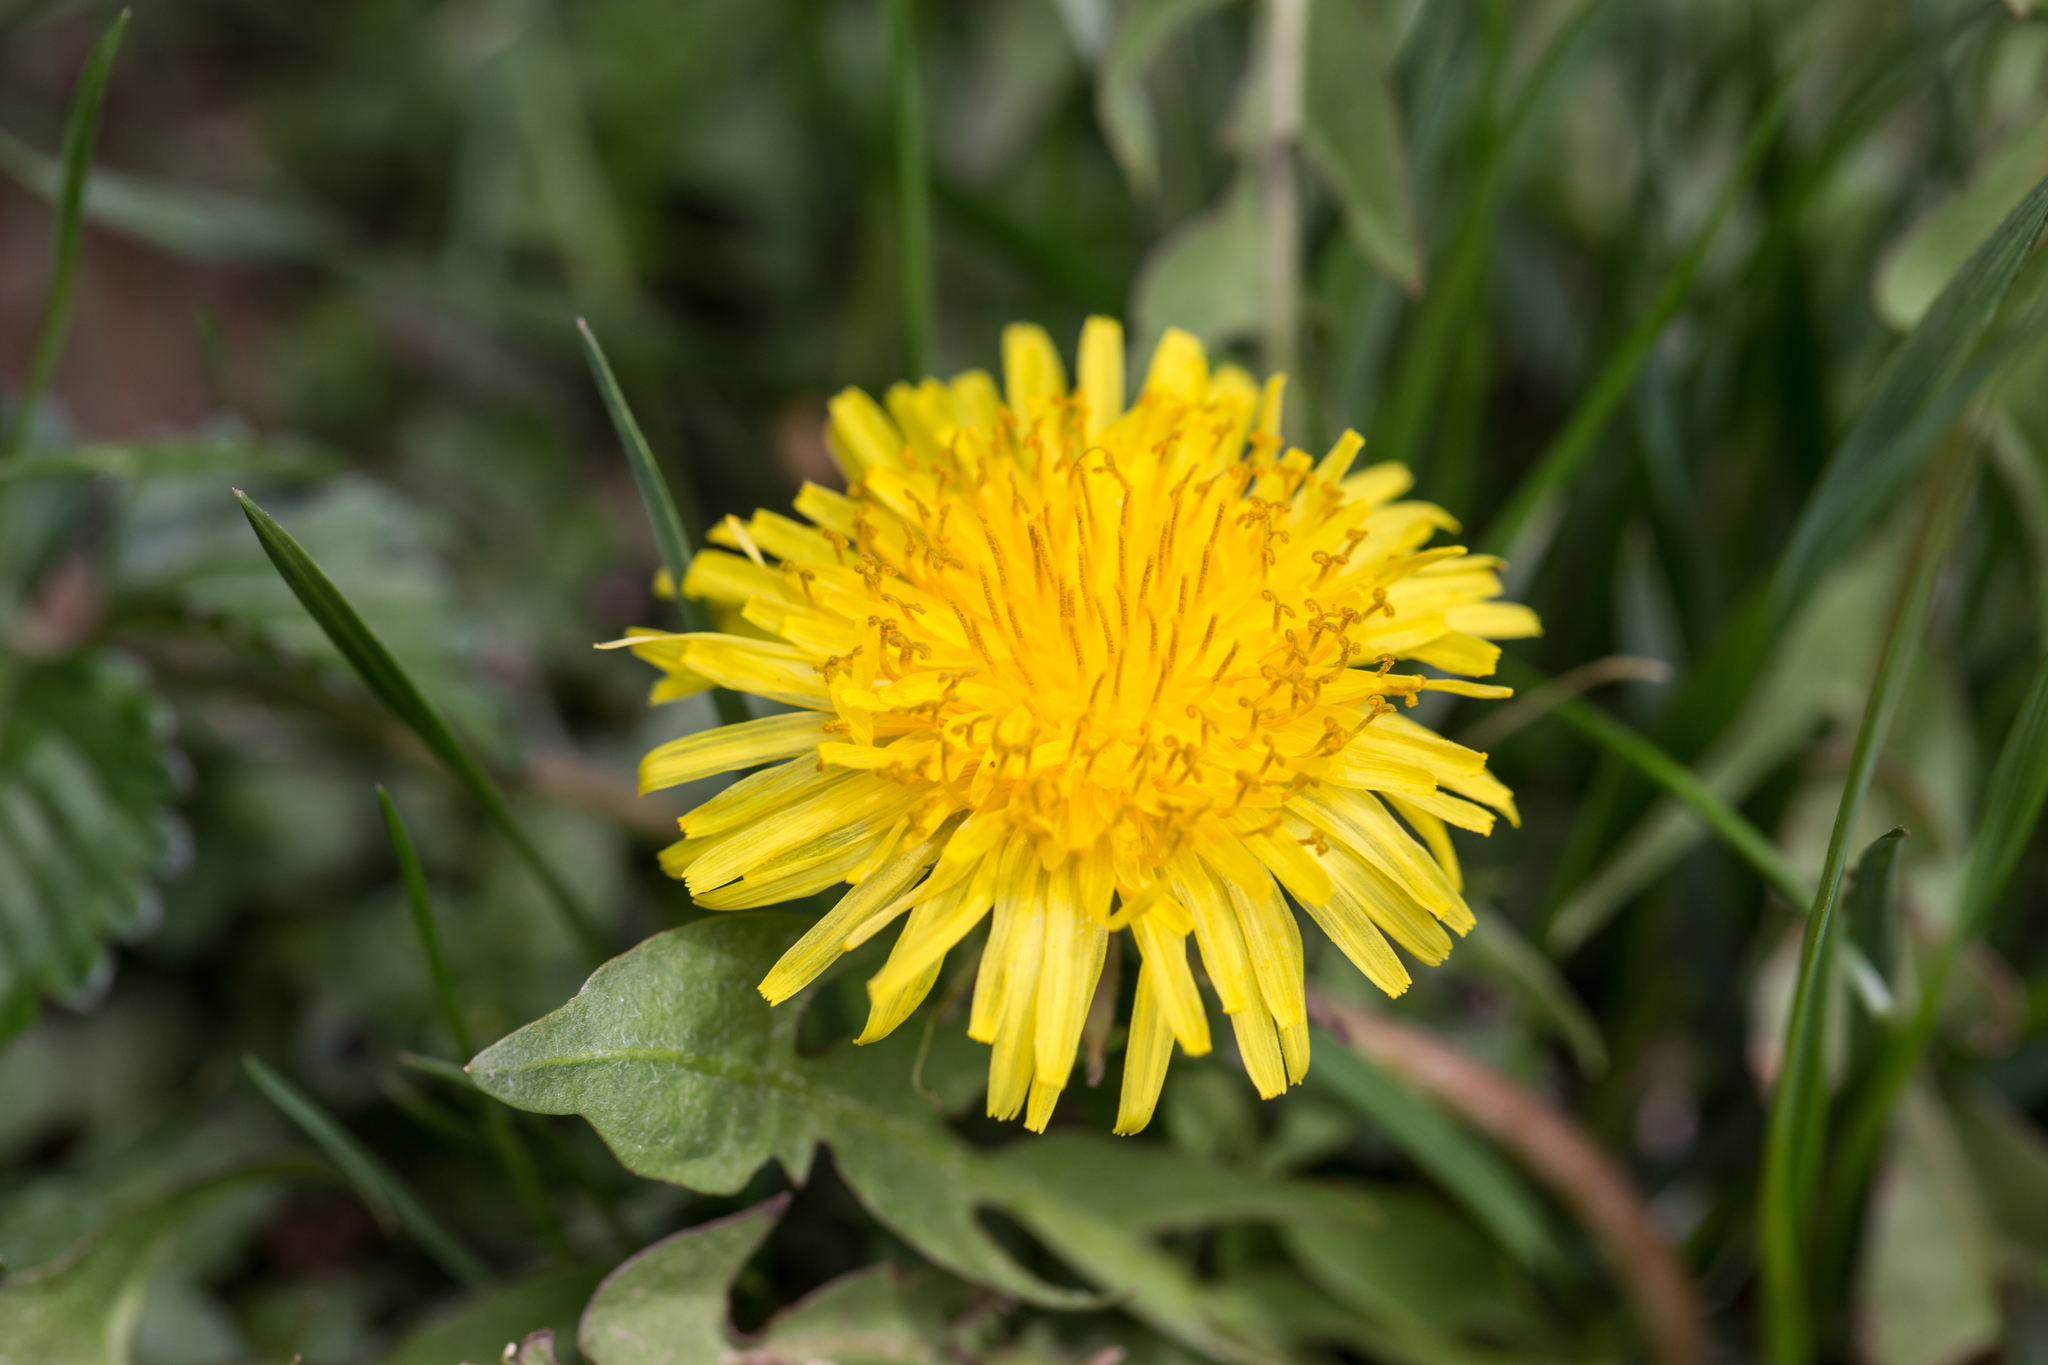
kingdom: Plantae
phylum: Tracheophyta
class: Magnoliopsida
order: Asterales
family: Asteraceae
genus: Taraxacum
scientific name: Taraxacum officinale
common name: Common dandelion
